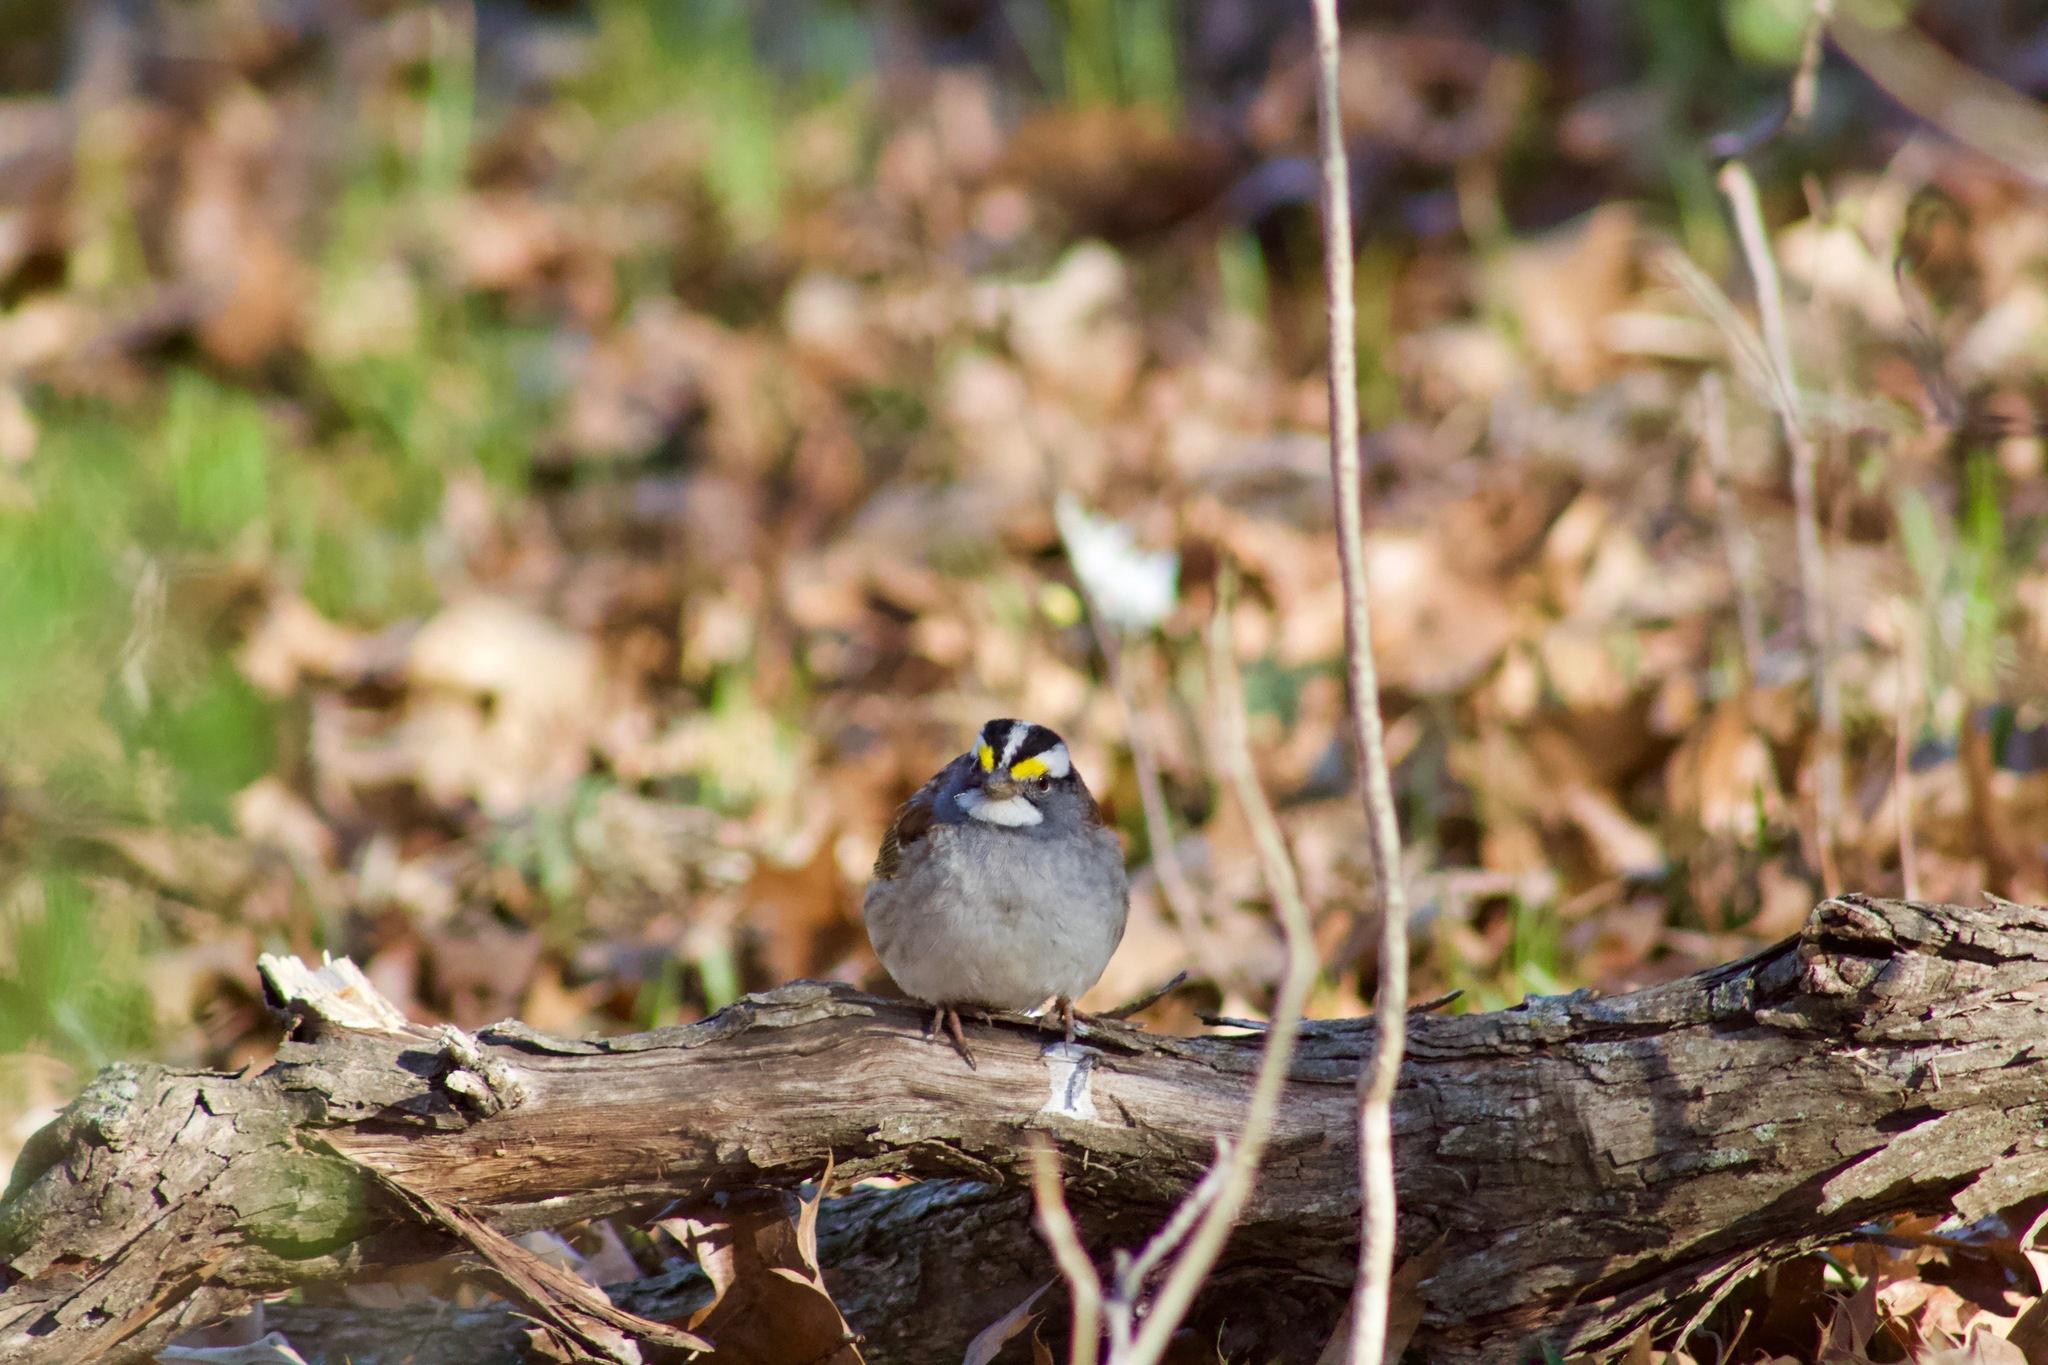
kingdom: Animalia
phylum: Chordata
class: Aves
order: Passeriformes
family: Passerellidae
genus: Zonotrichia
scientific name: Zonotrichia albicollis
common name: White-throated sparrow
